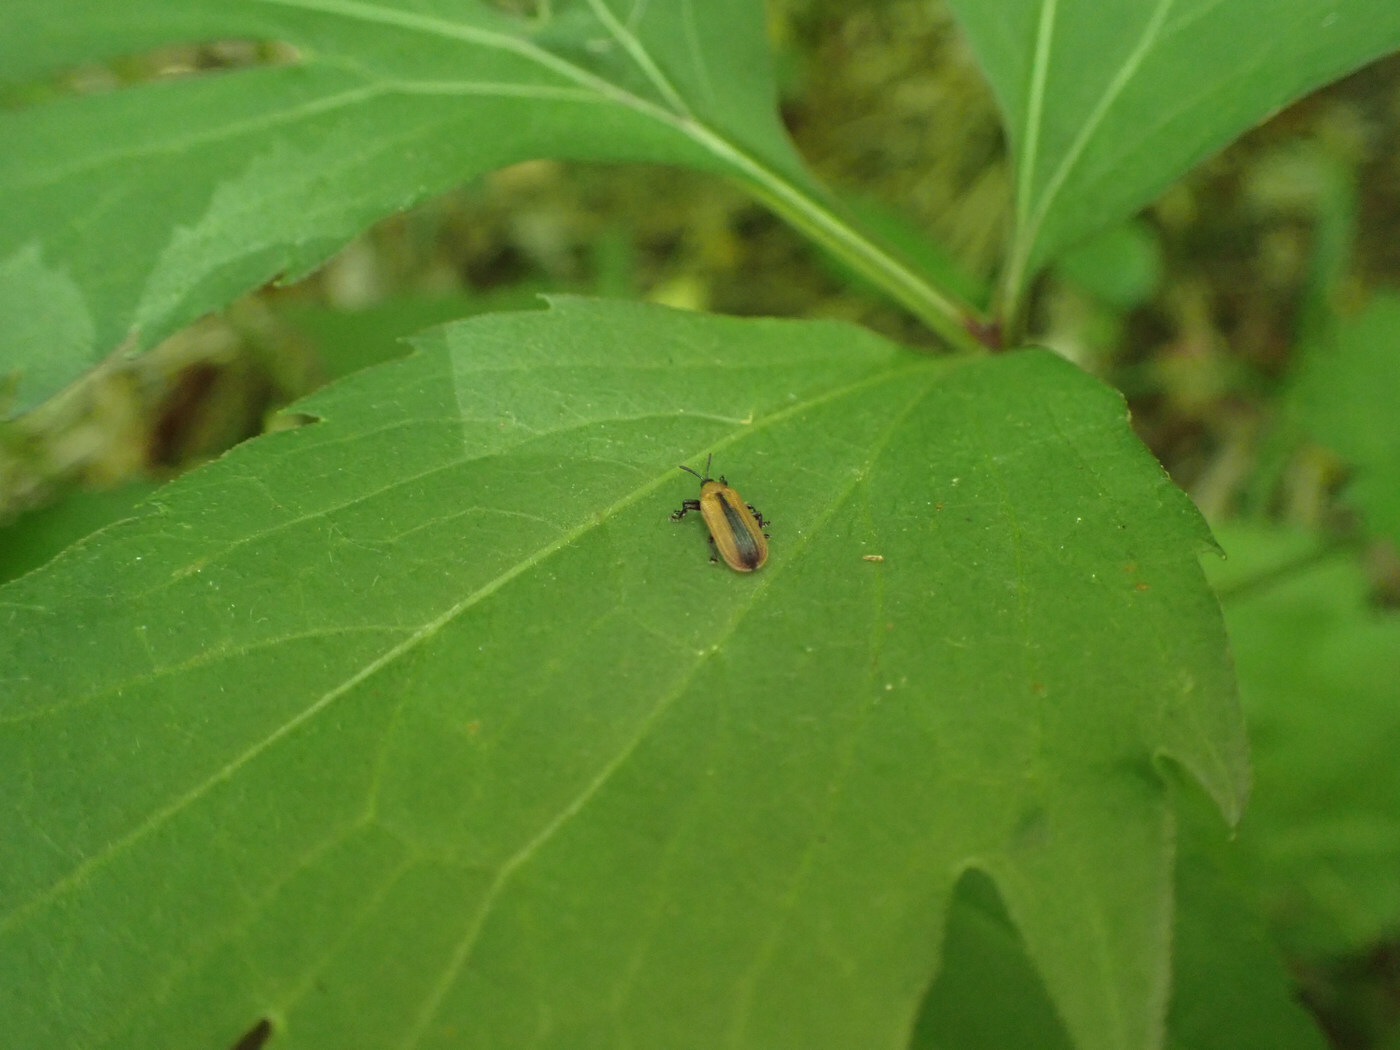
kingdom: Animalia
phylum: Arthropoda
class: Insecta
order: Coleoptera
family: Chrysomelidae
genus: Odontota
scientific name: Odontota dorsalis
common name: Locust leaf-miner beetle
